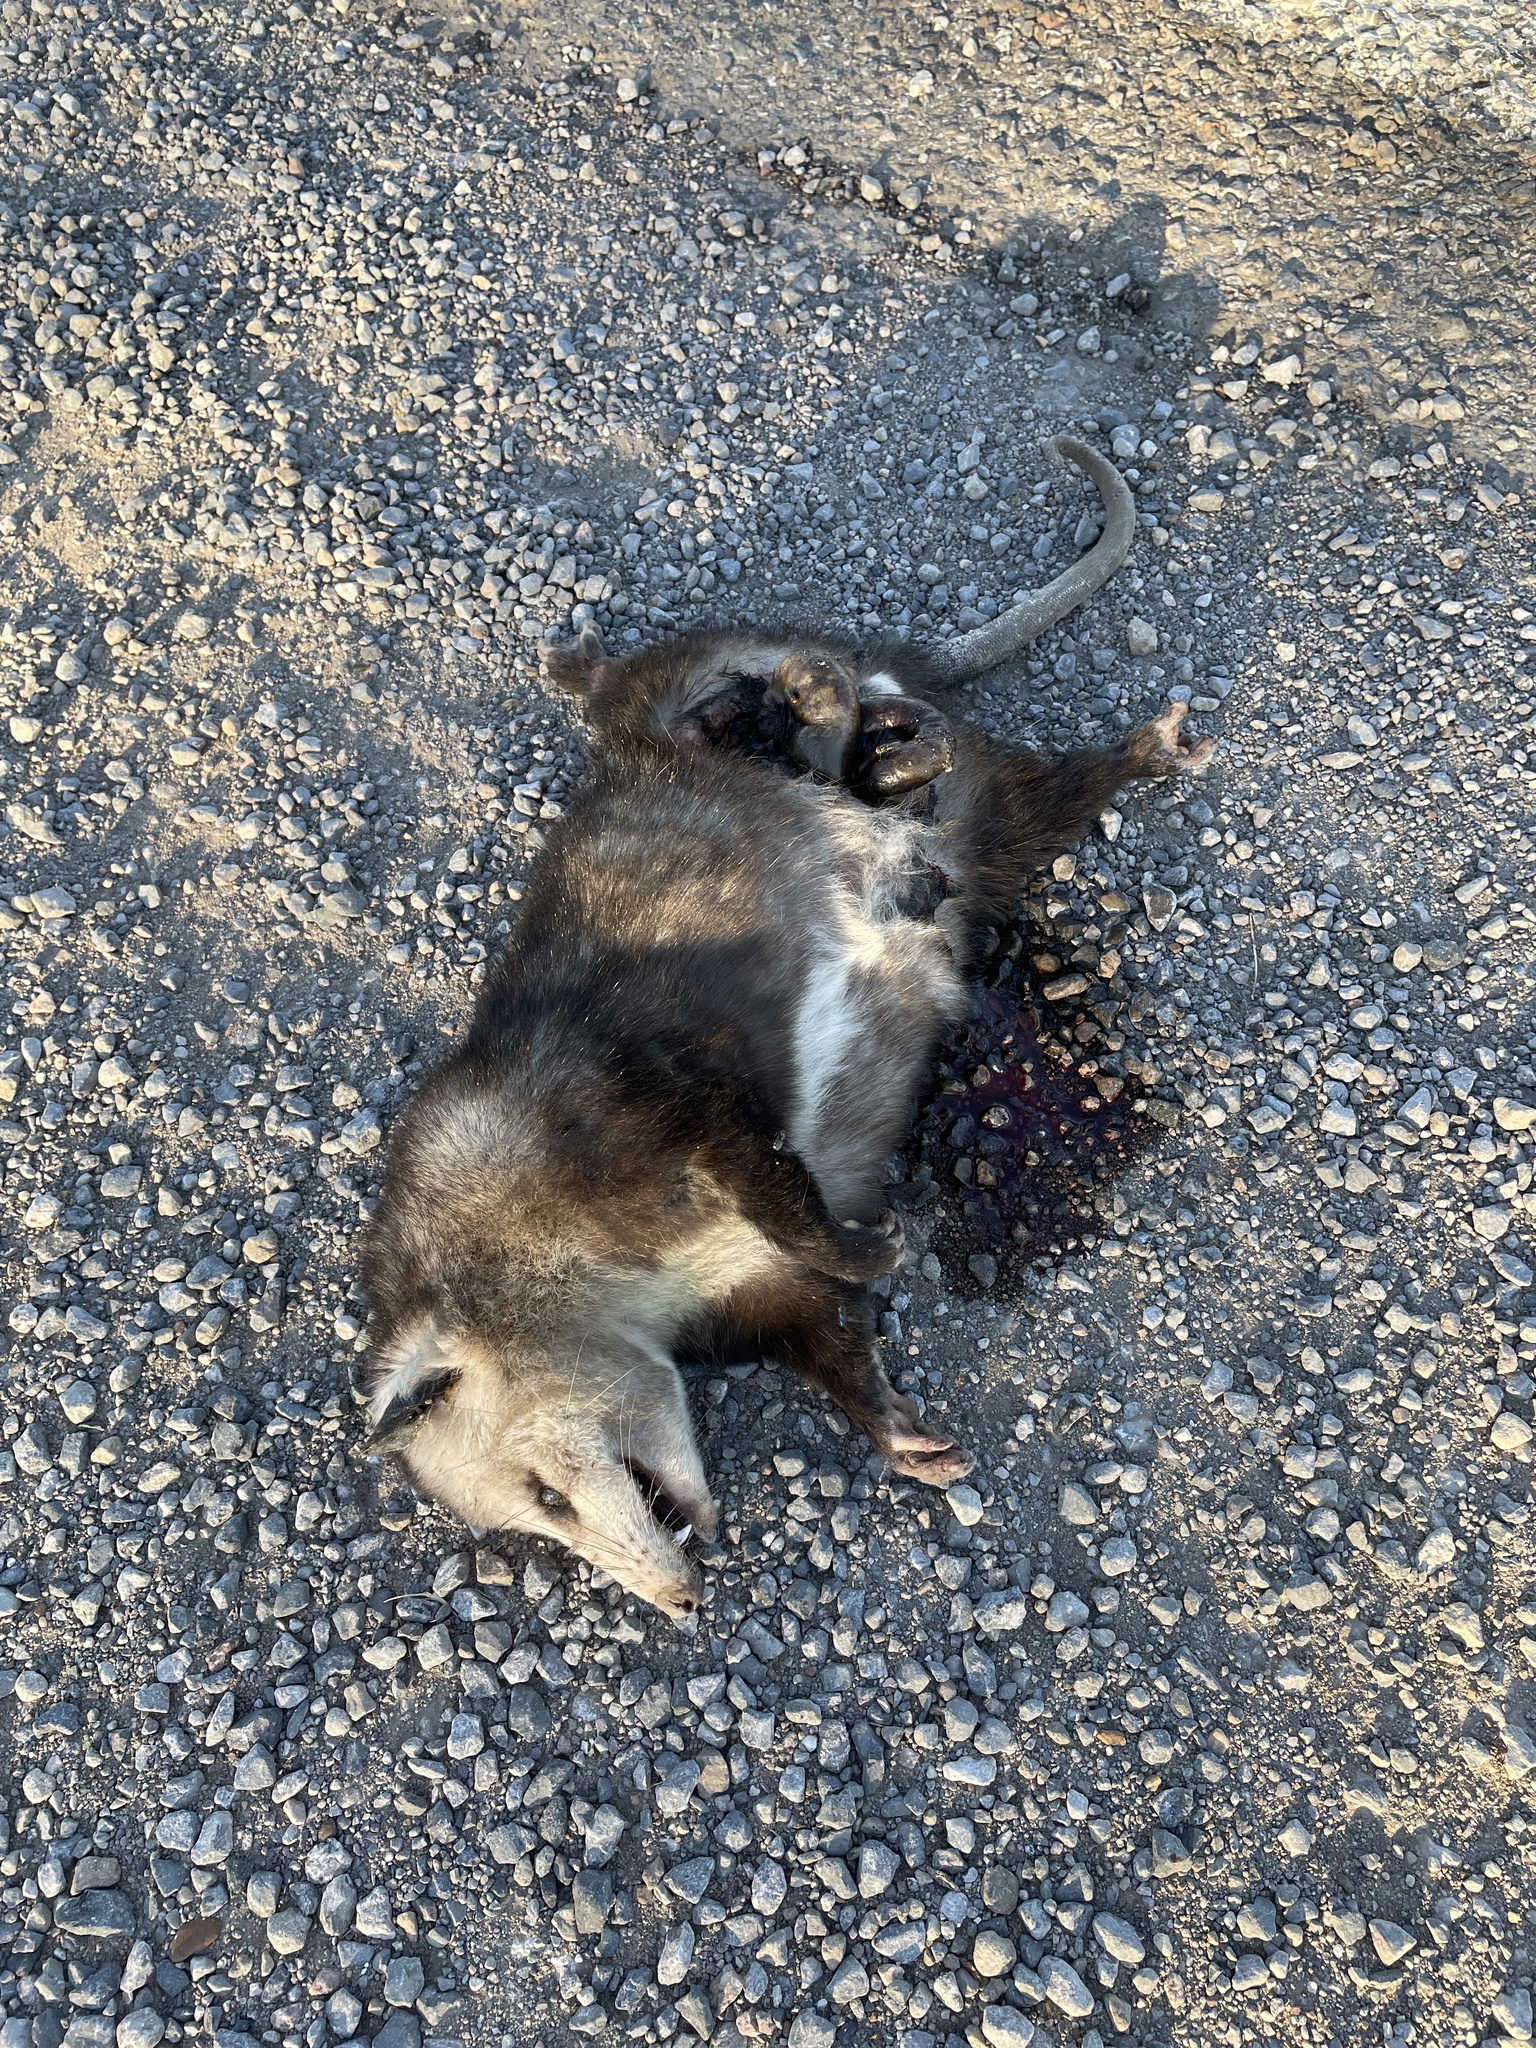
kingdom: Animalia
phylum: Chordata
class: Mammalia
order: Didelphimorphia
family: Didelphidae
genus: Didelphis
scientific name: Didelphis virginiana
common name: Virginia opossum
